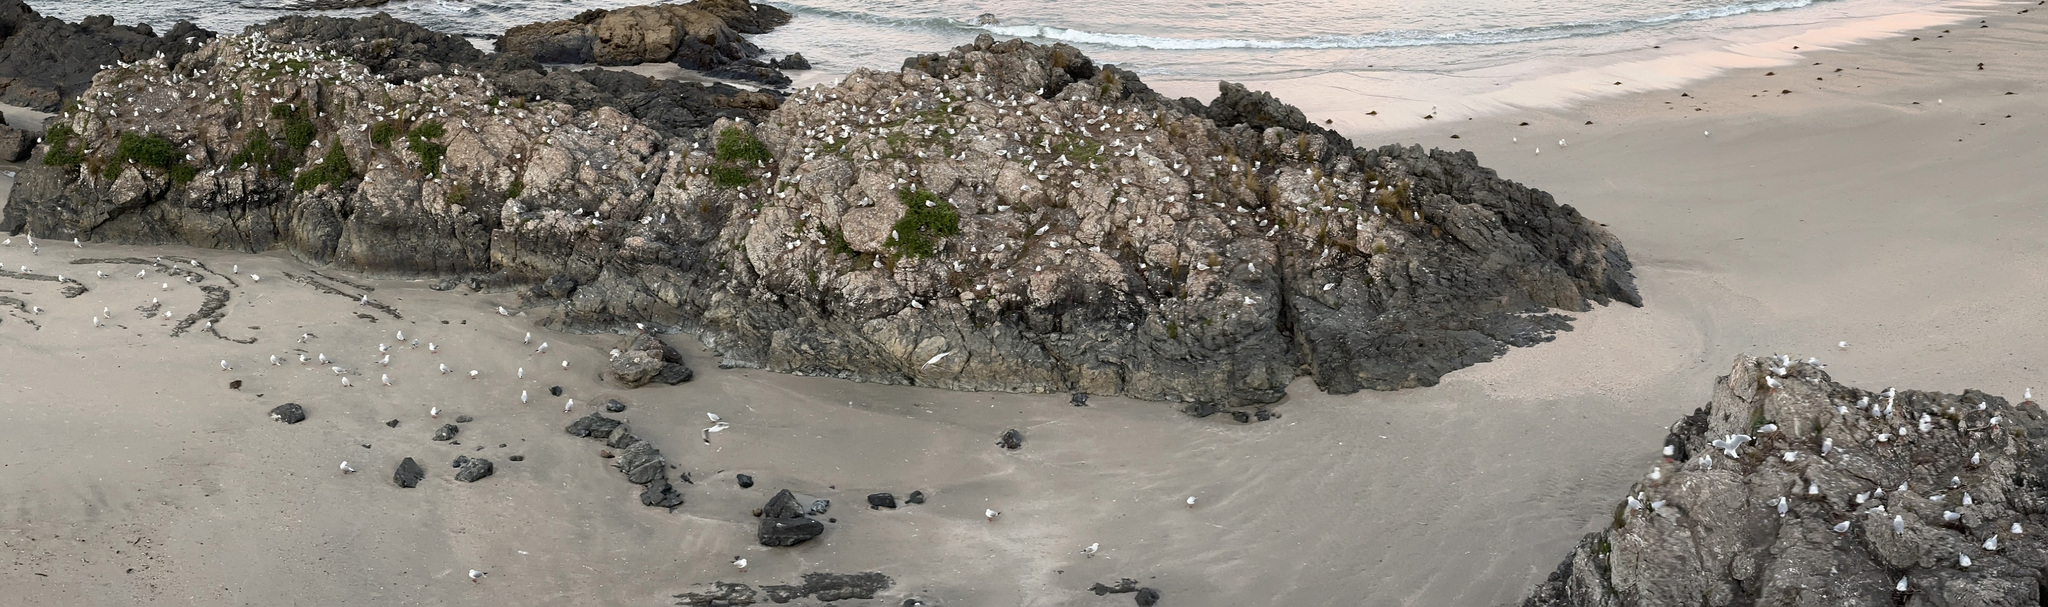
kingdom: Animalia
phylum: Chordata
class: Aves
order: Charadriiformes
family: Laridae
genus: Chroicocephalus
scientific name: Chroicocephalus novaehollandiae
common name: Silver gull
